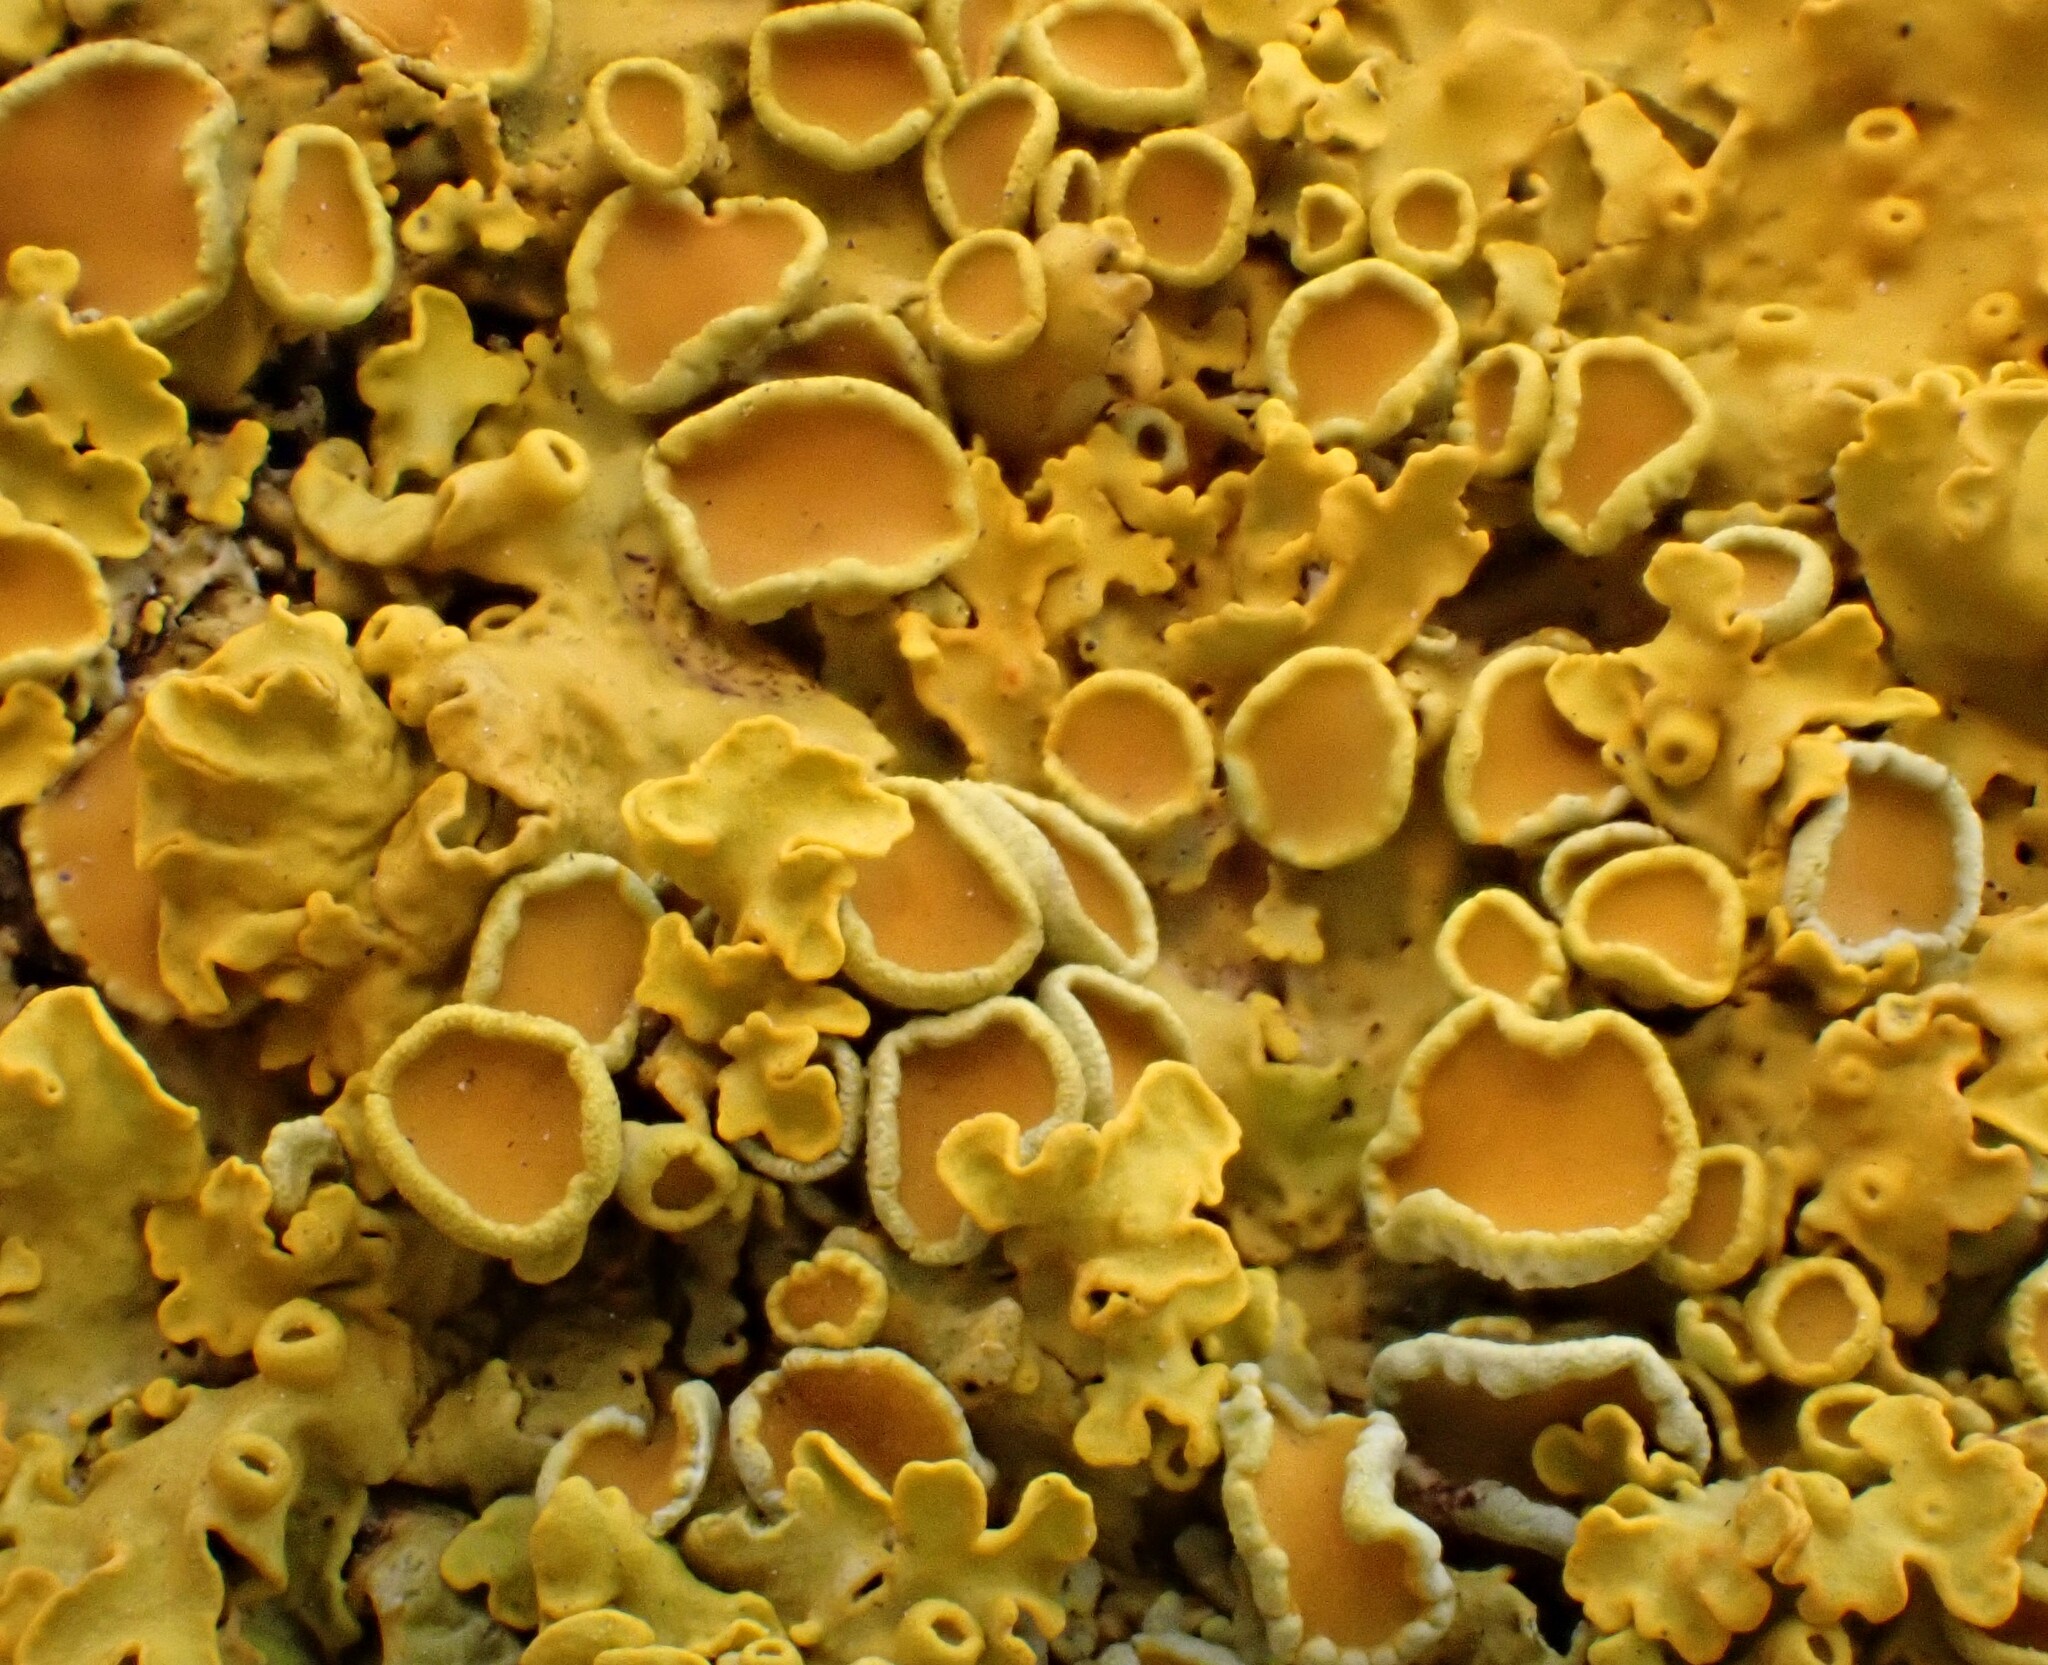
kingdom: Fungi
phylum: Ascomycota
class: Lecanoromycetes
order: Teloschistales
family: Teloschistaceae
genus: Xanthoria
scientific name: Xanthoria parietina
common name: Common orange lichen
